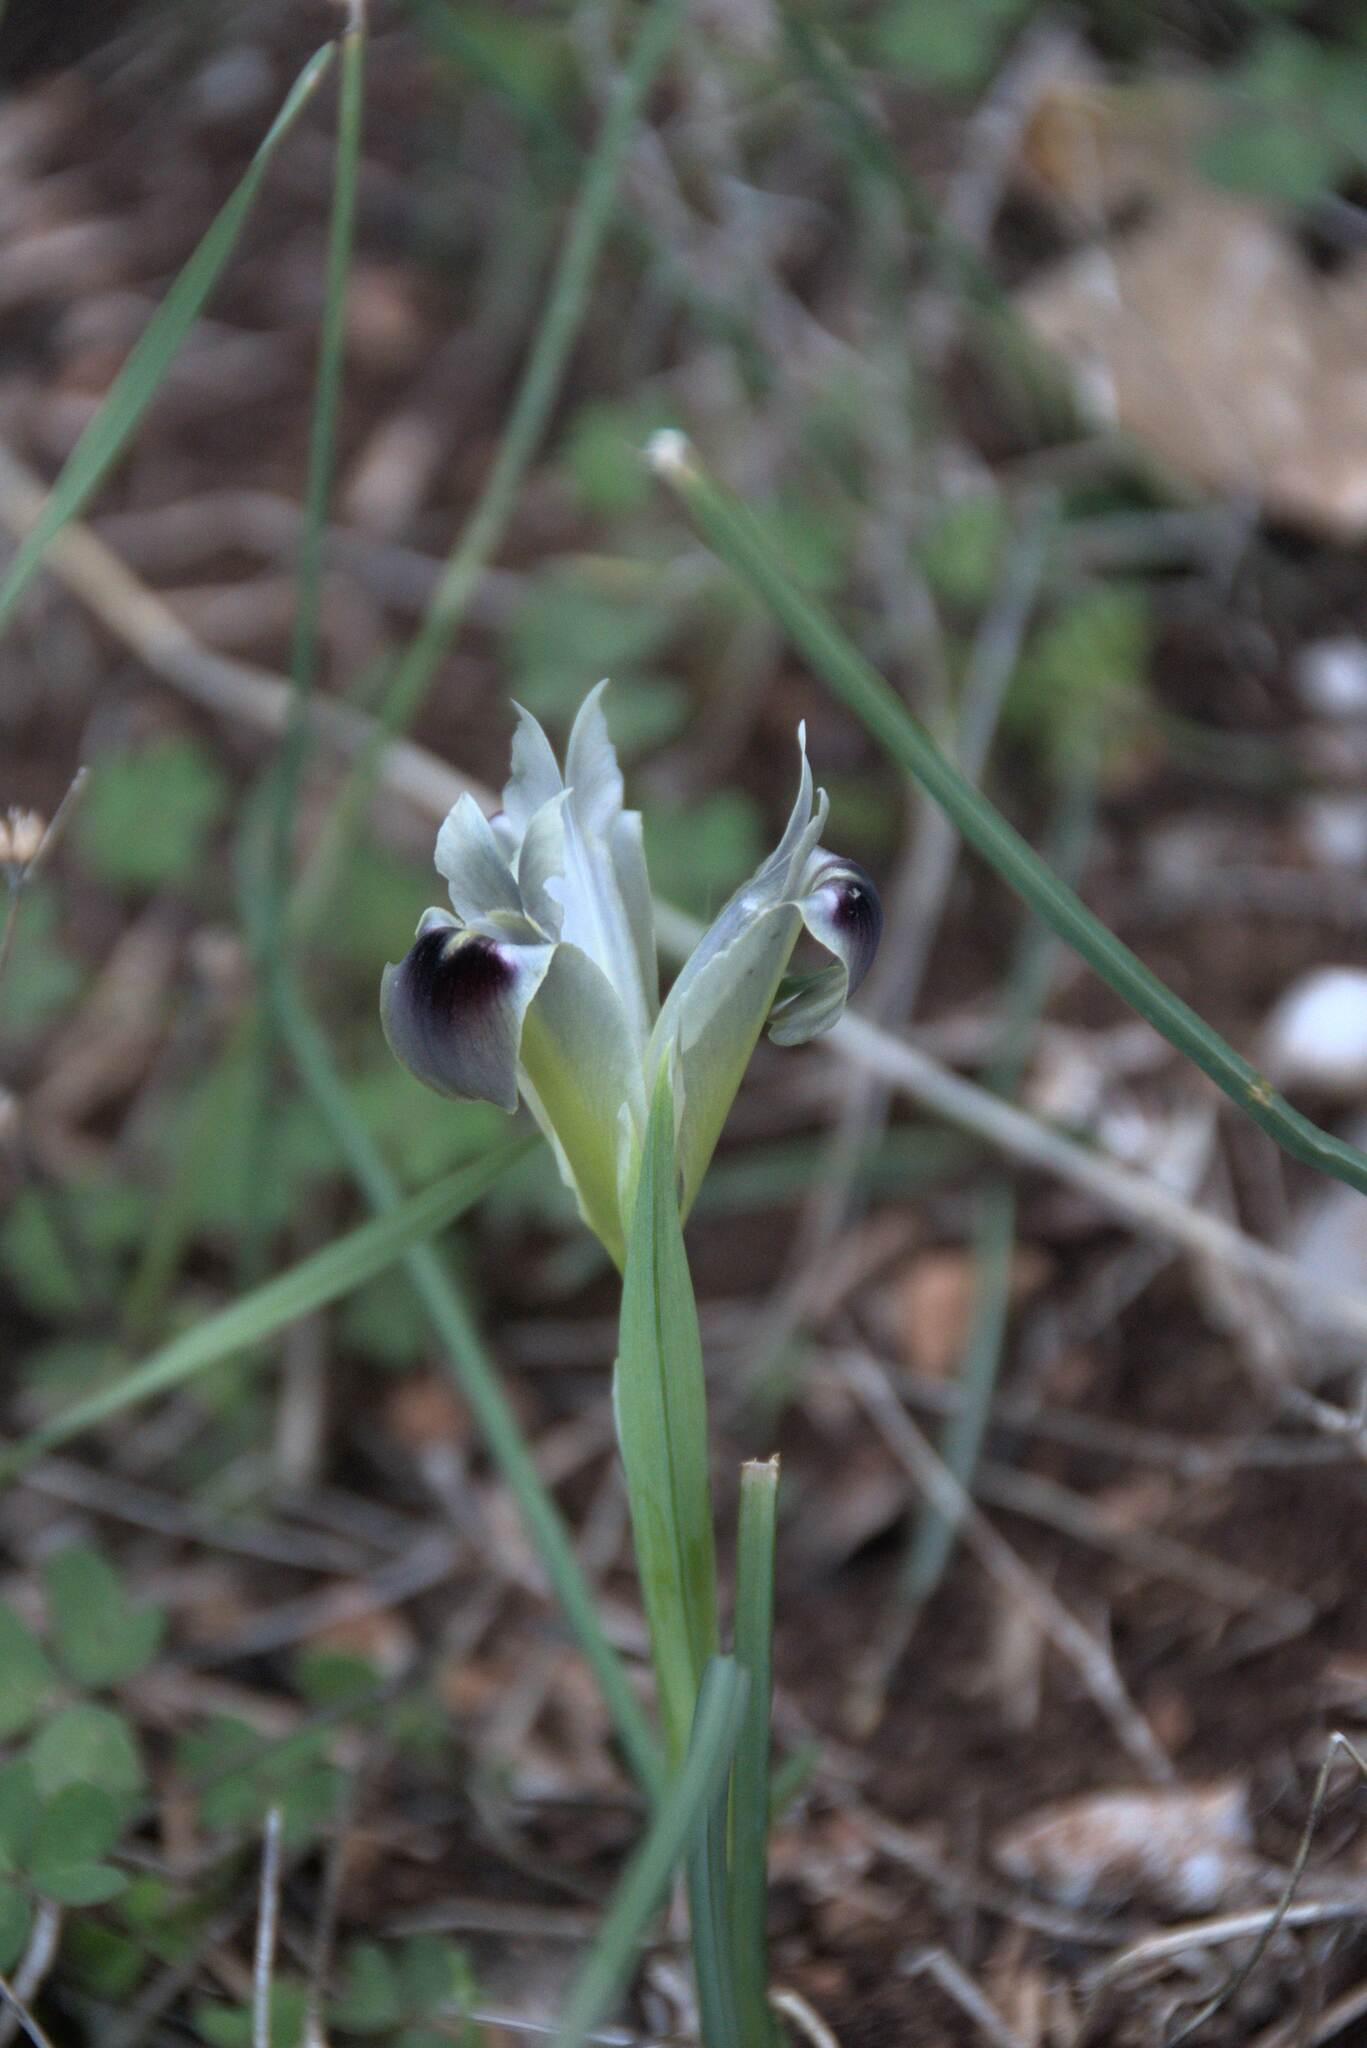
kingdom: Plantae
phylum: Tracheophyta
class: Liliopsida
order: Asparagales
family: Iridaceae
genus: Iris
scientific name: Iris tuberosa
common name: Snake's-head iris
